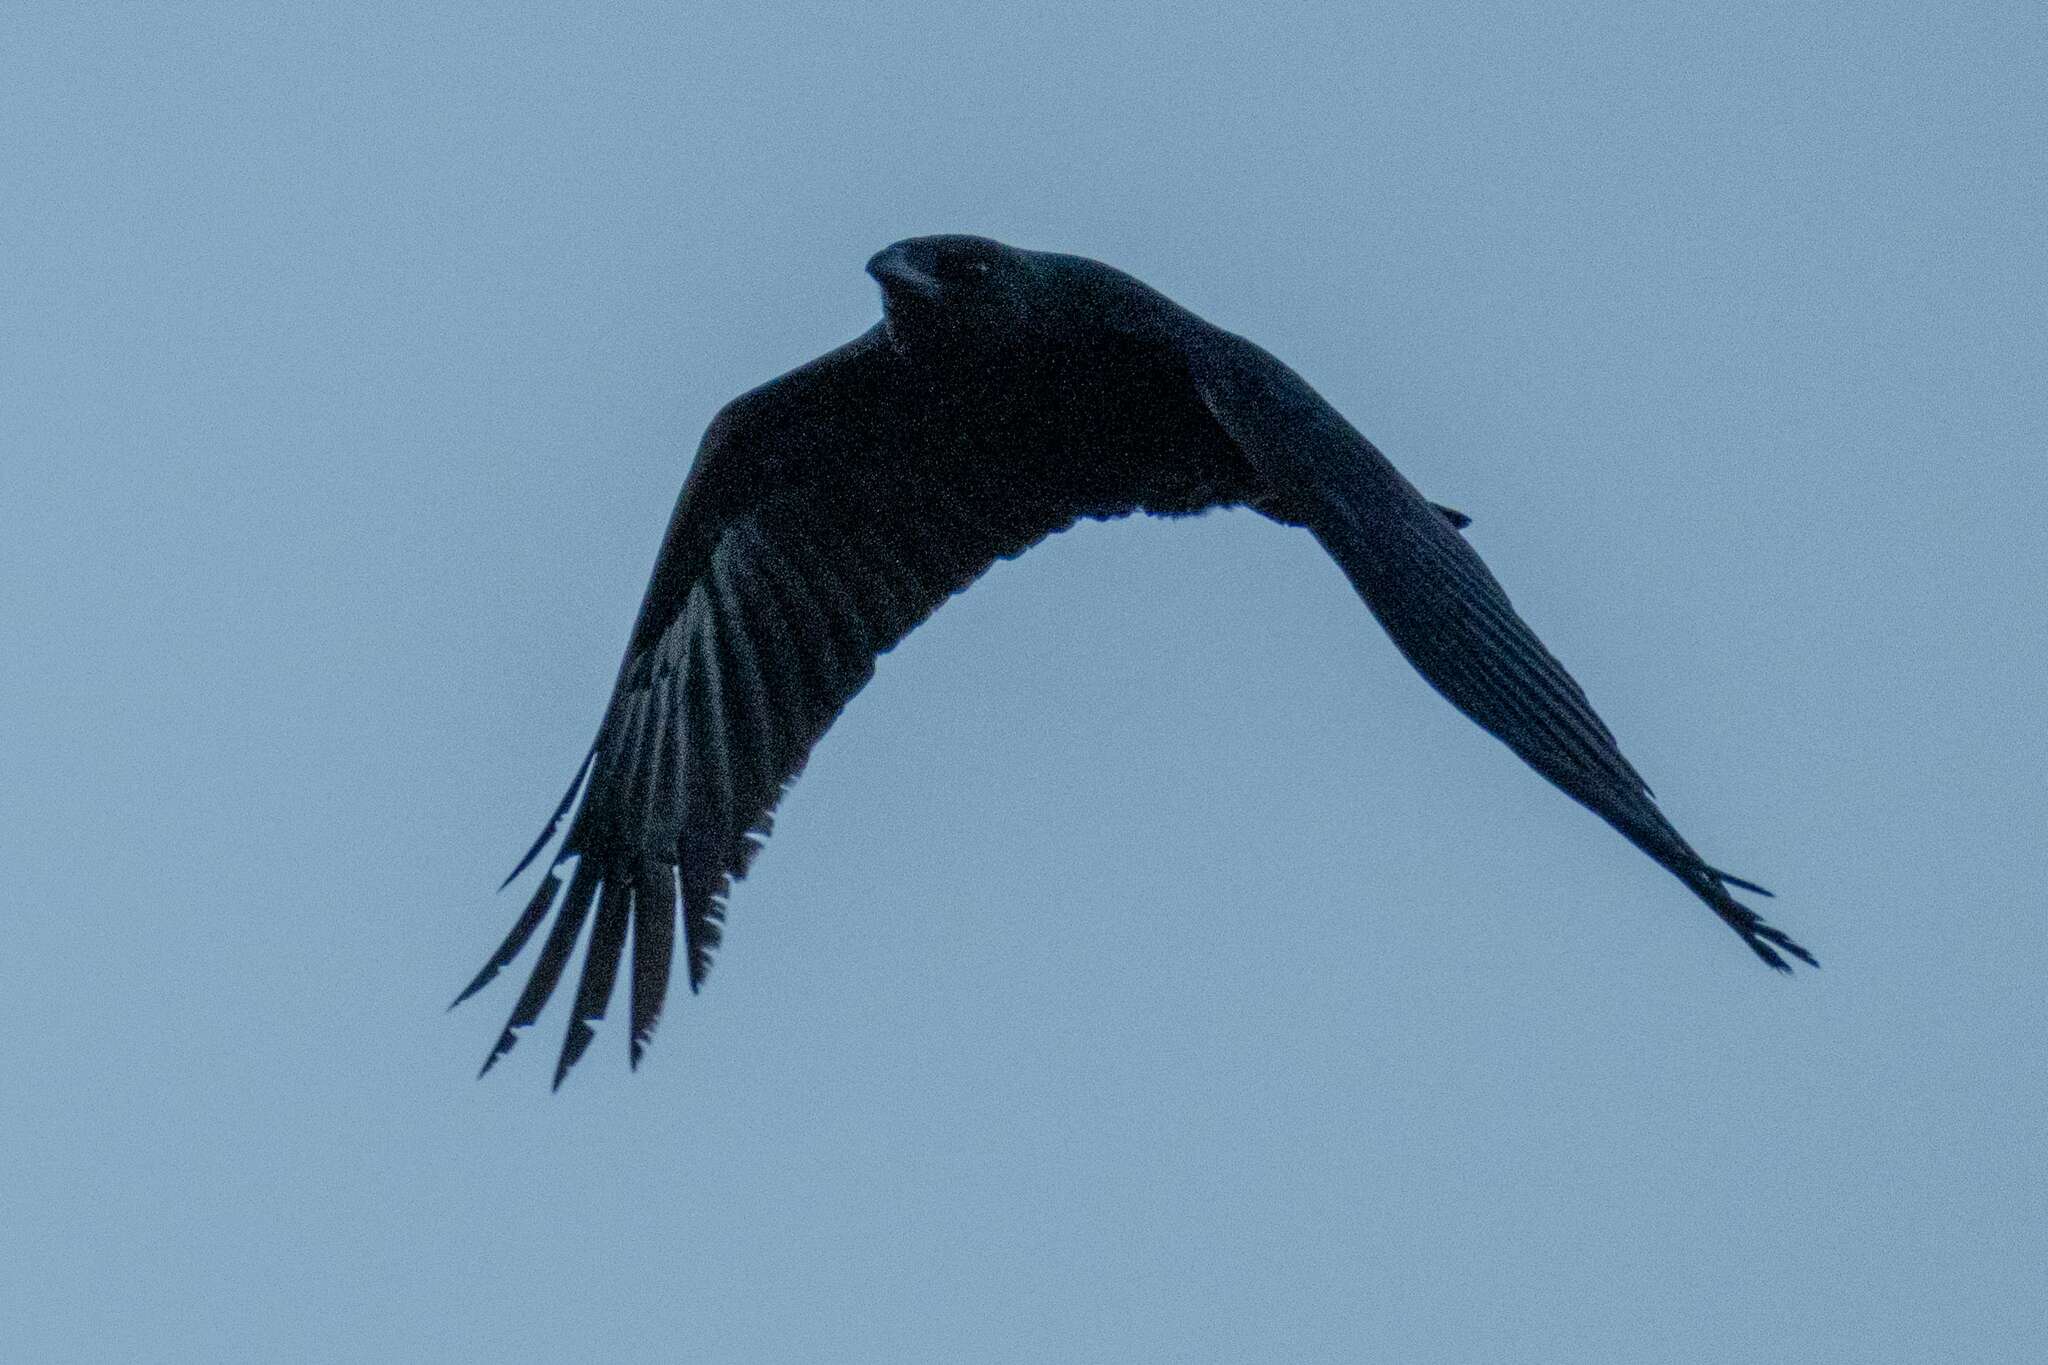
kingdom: Animalia
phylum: Chordata
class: Aves
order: Passeriformes
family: Corvidae
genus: Corvus
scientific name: Corvus corone
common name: Carrion crow
